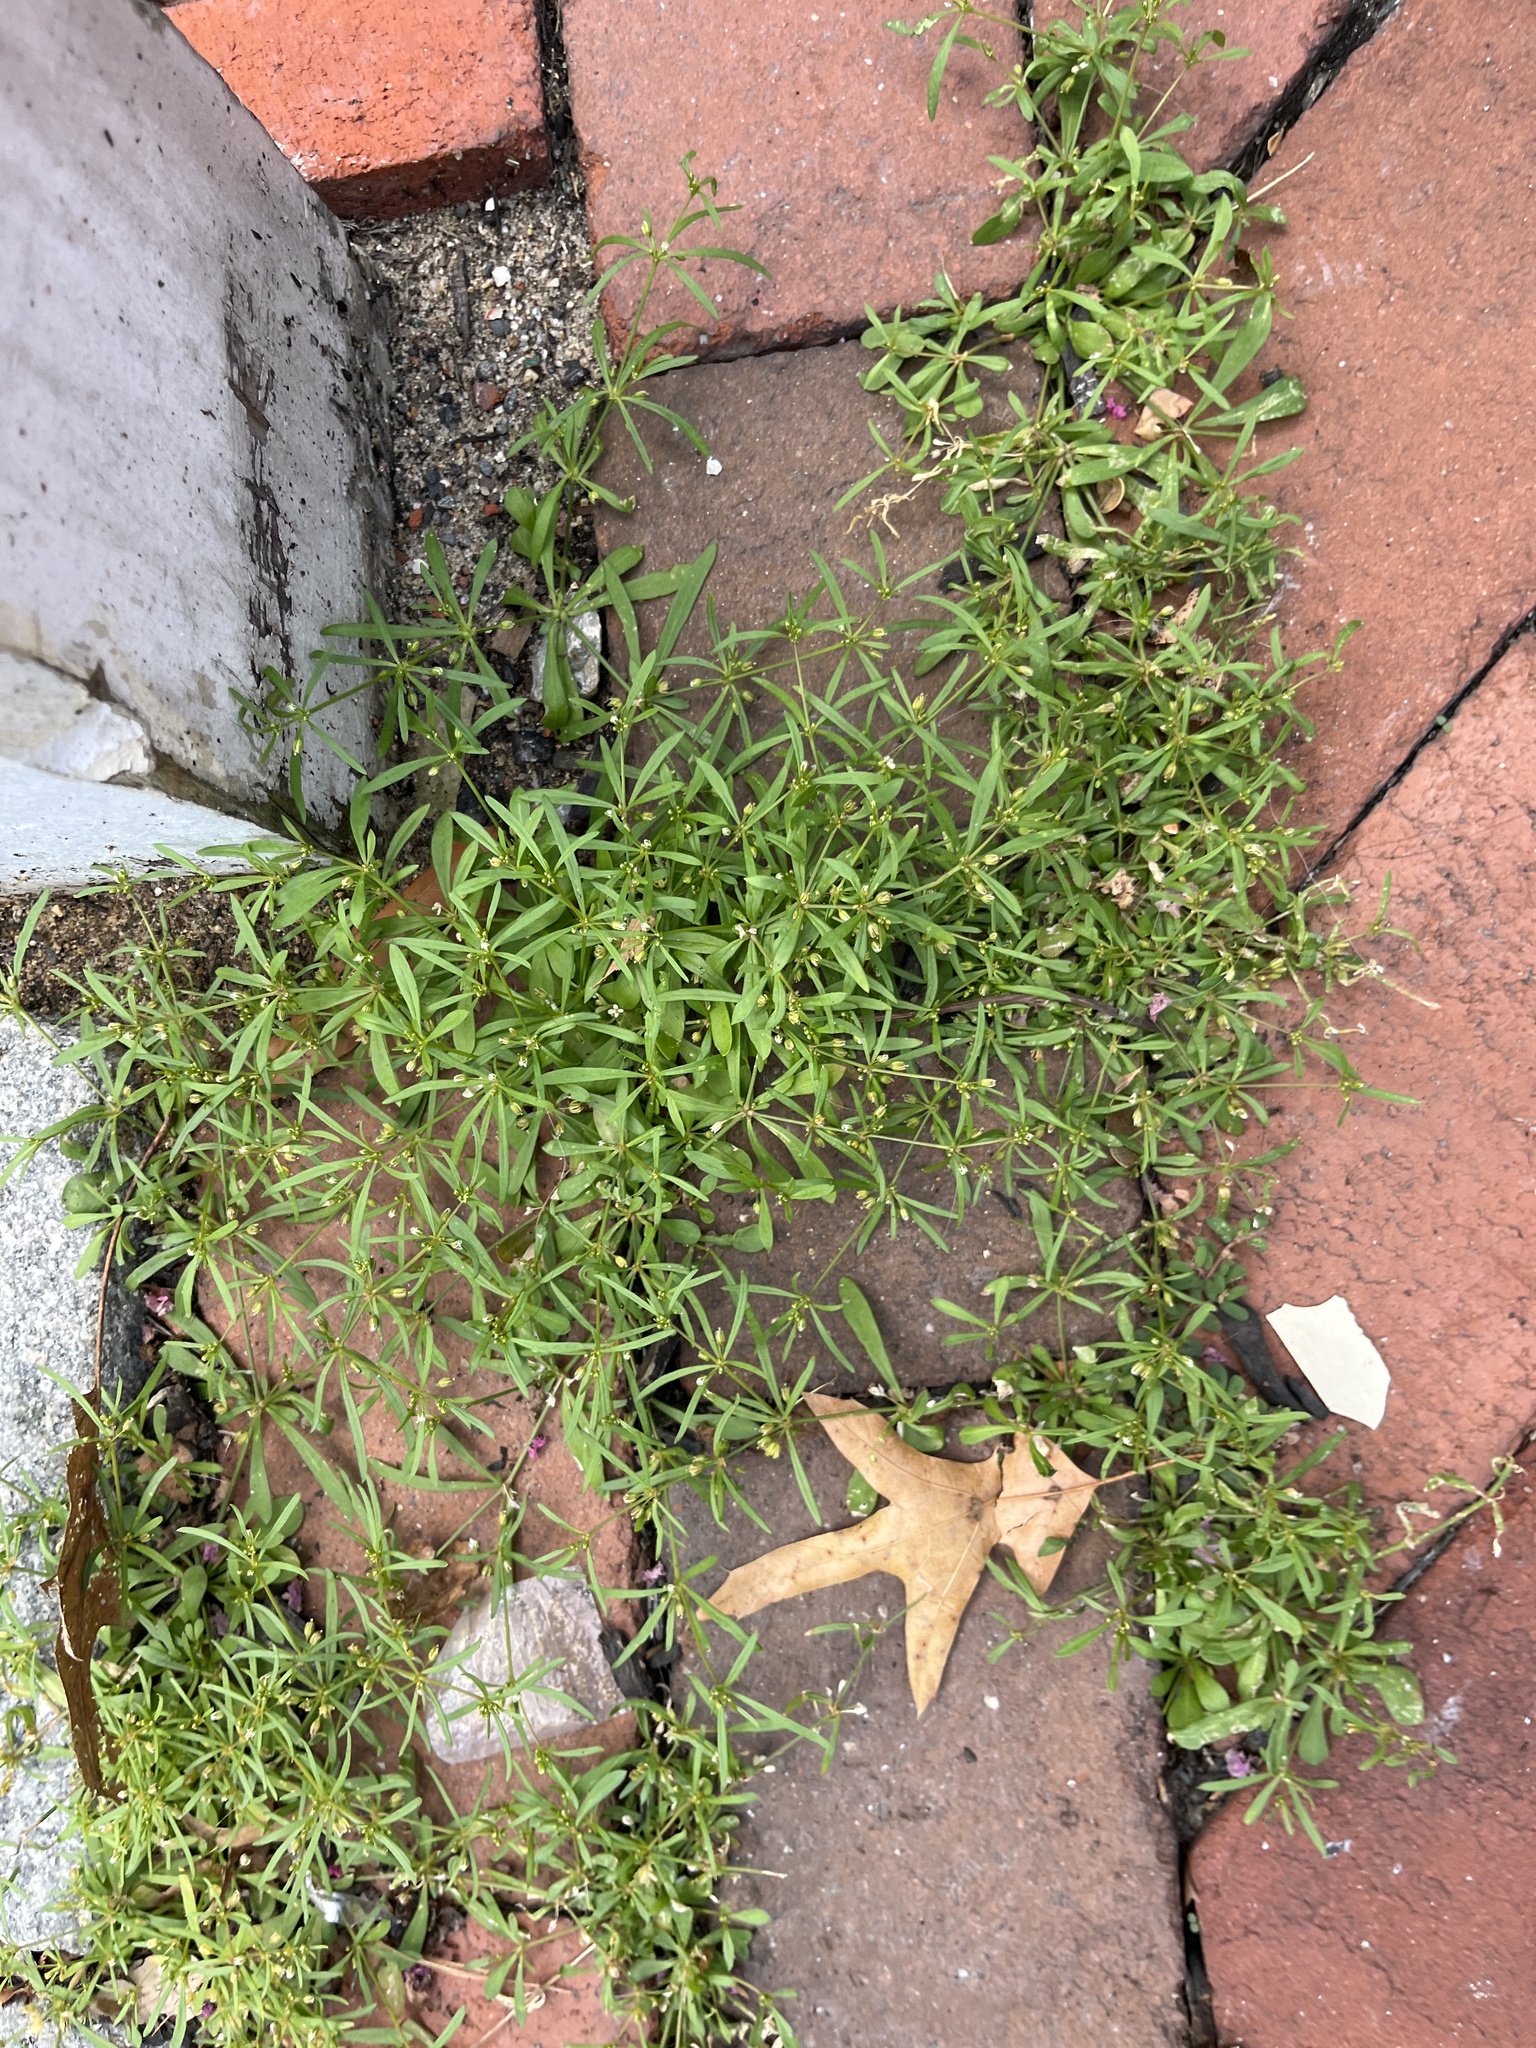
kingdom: Plantae
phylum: Tracheophyta
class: Magnoliopsida
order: Caryophyllales
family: Molluginaceae
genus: Mollugo
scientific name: Mollugo verticillata
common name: Green carpetweed
